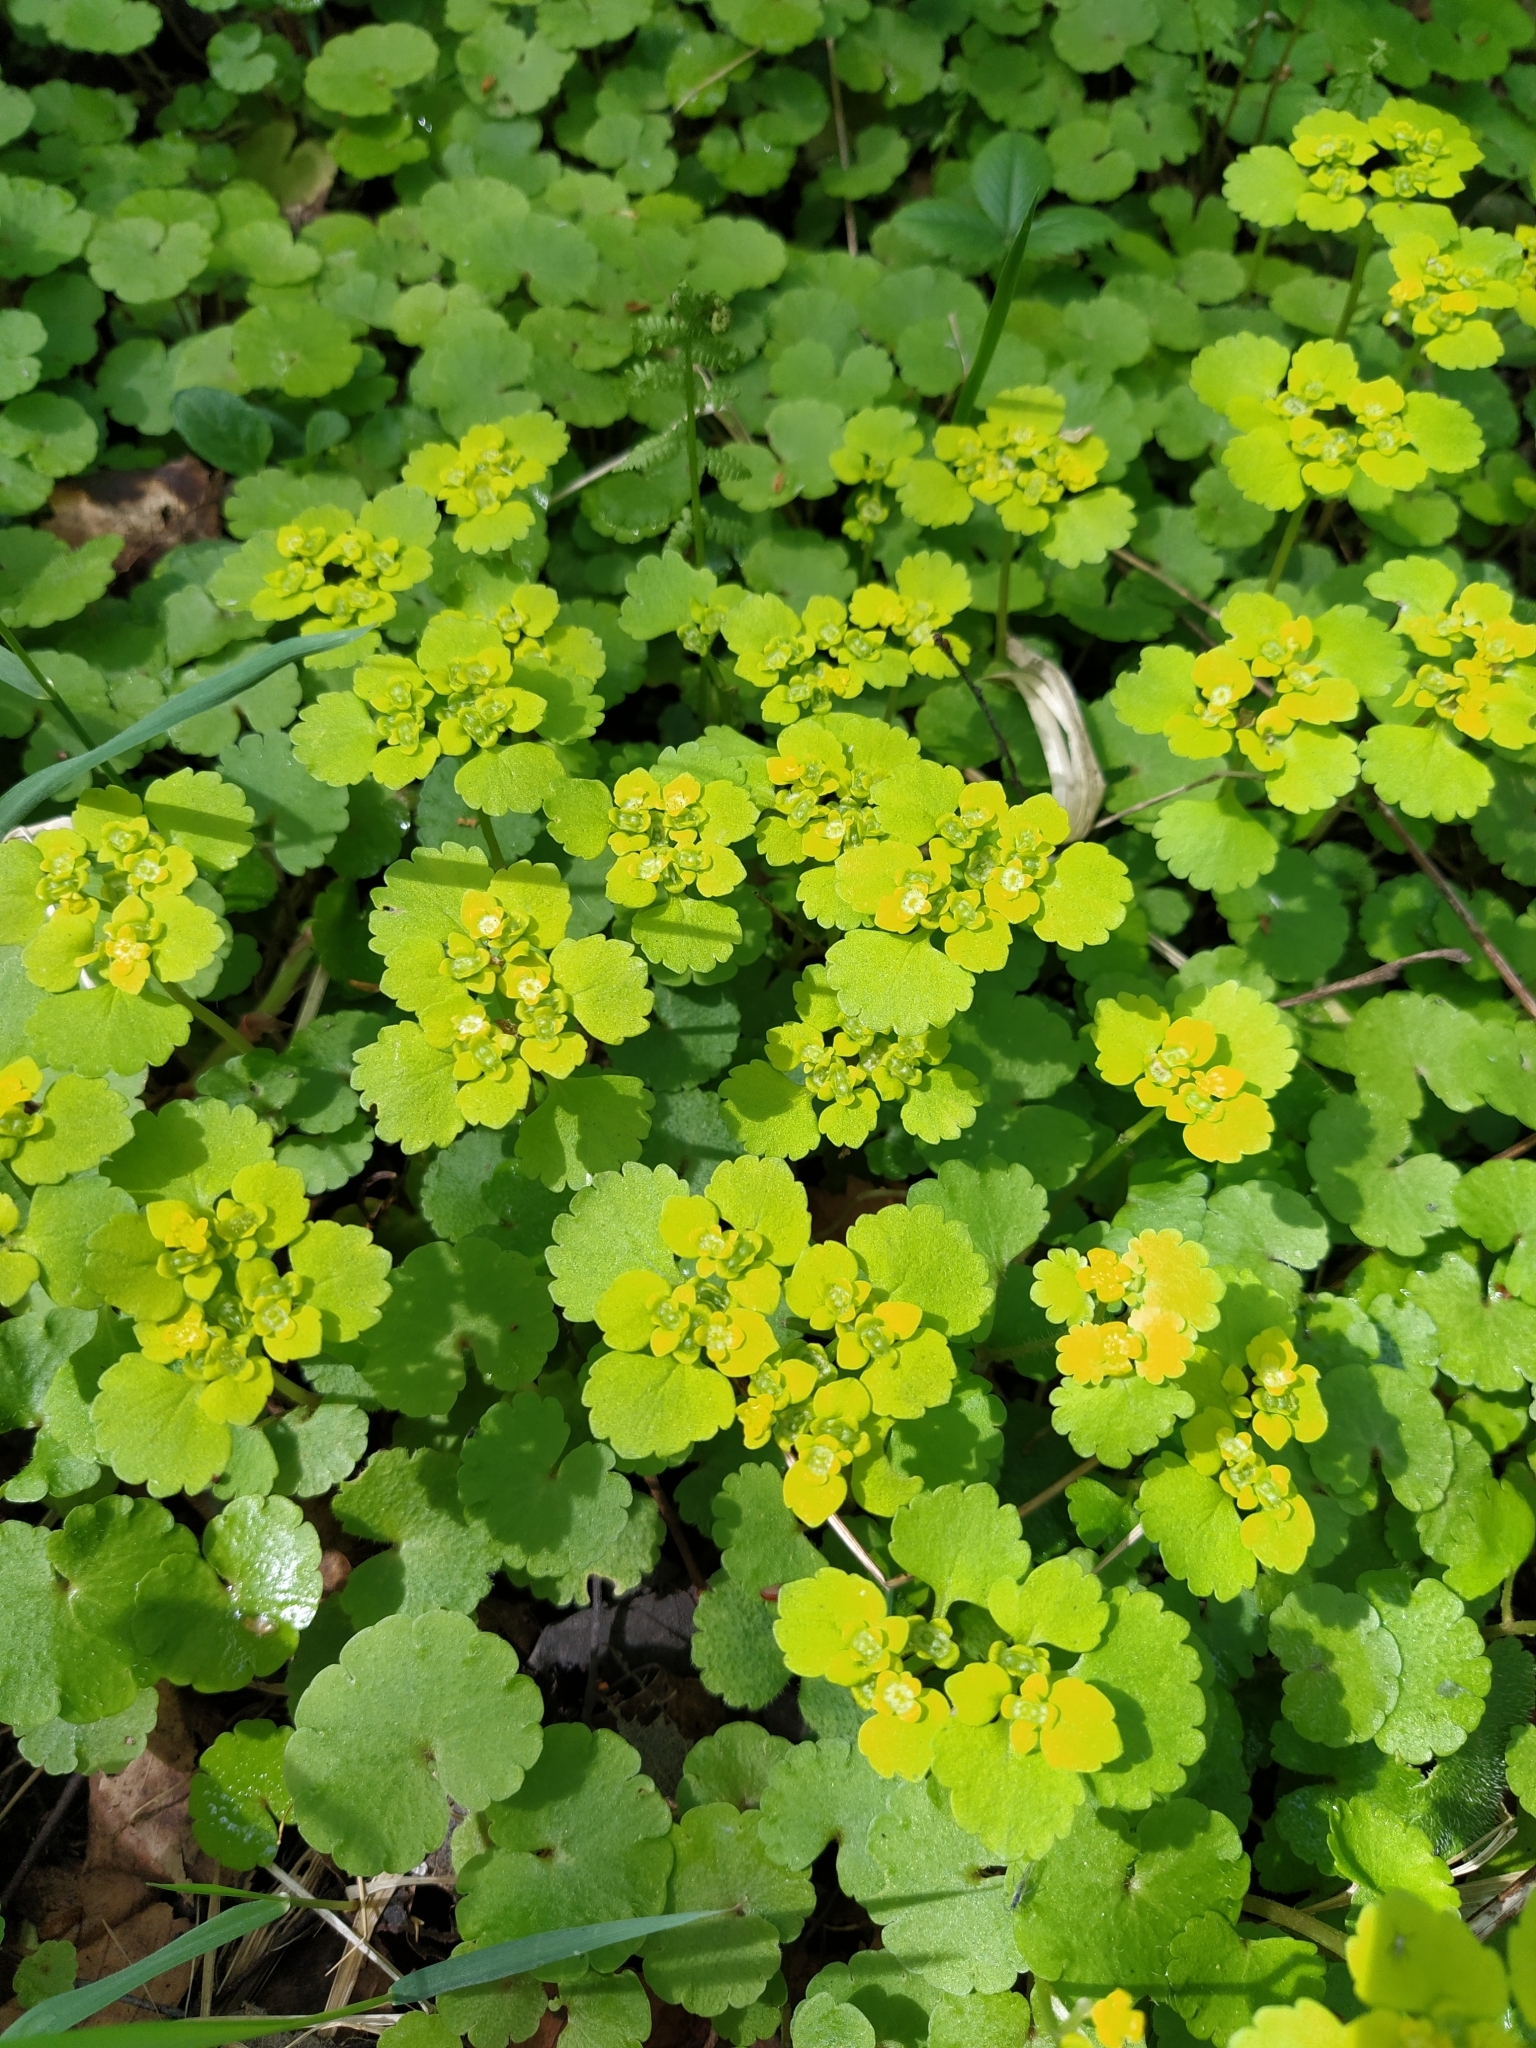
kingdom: Plantae
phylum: Tracheophyta
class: Magnoliopsida
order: Saxifragales
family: Saxifragaceae
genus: Chrysosplenium
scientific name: Chrysosplenium alternifolium
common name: Alternate-leaved golden-saxifrage
